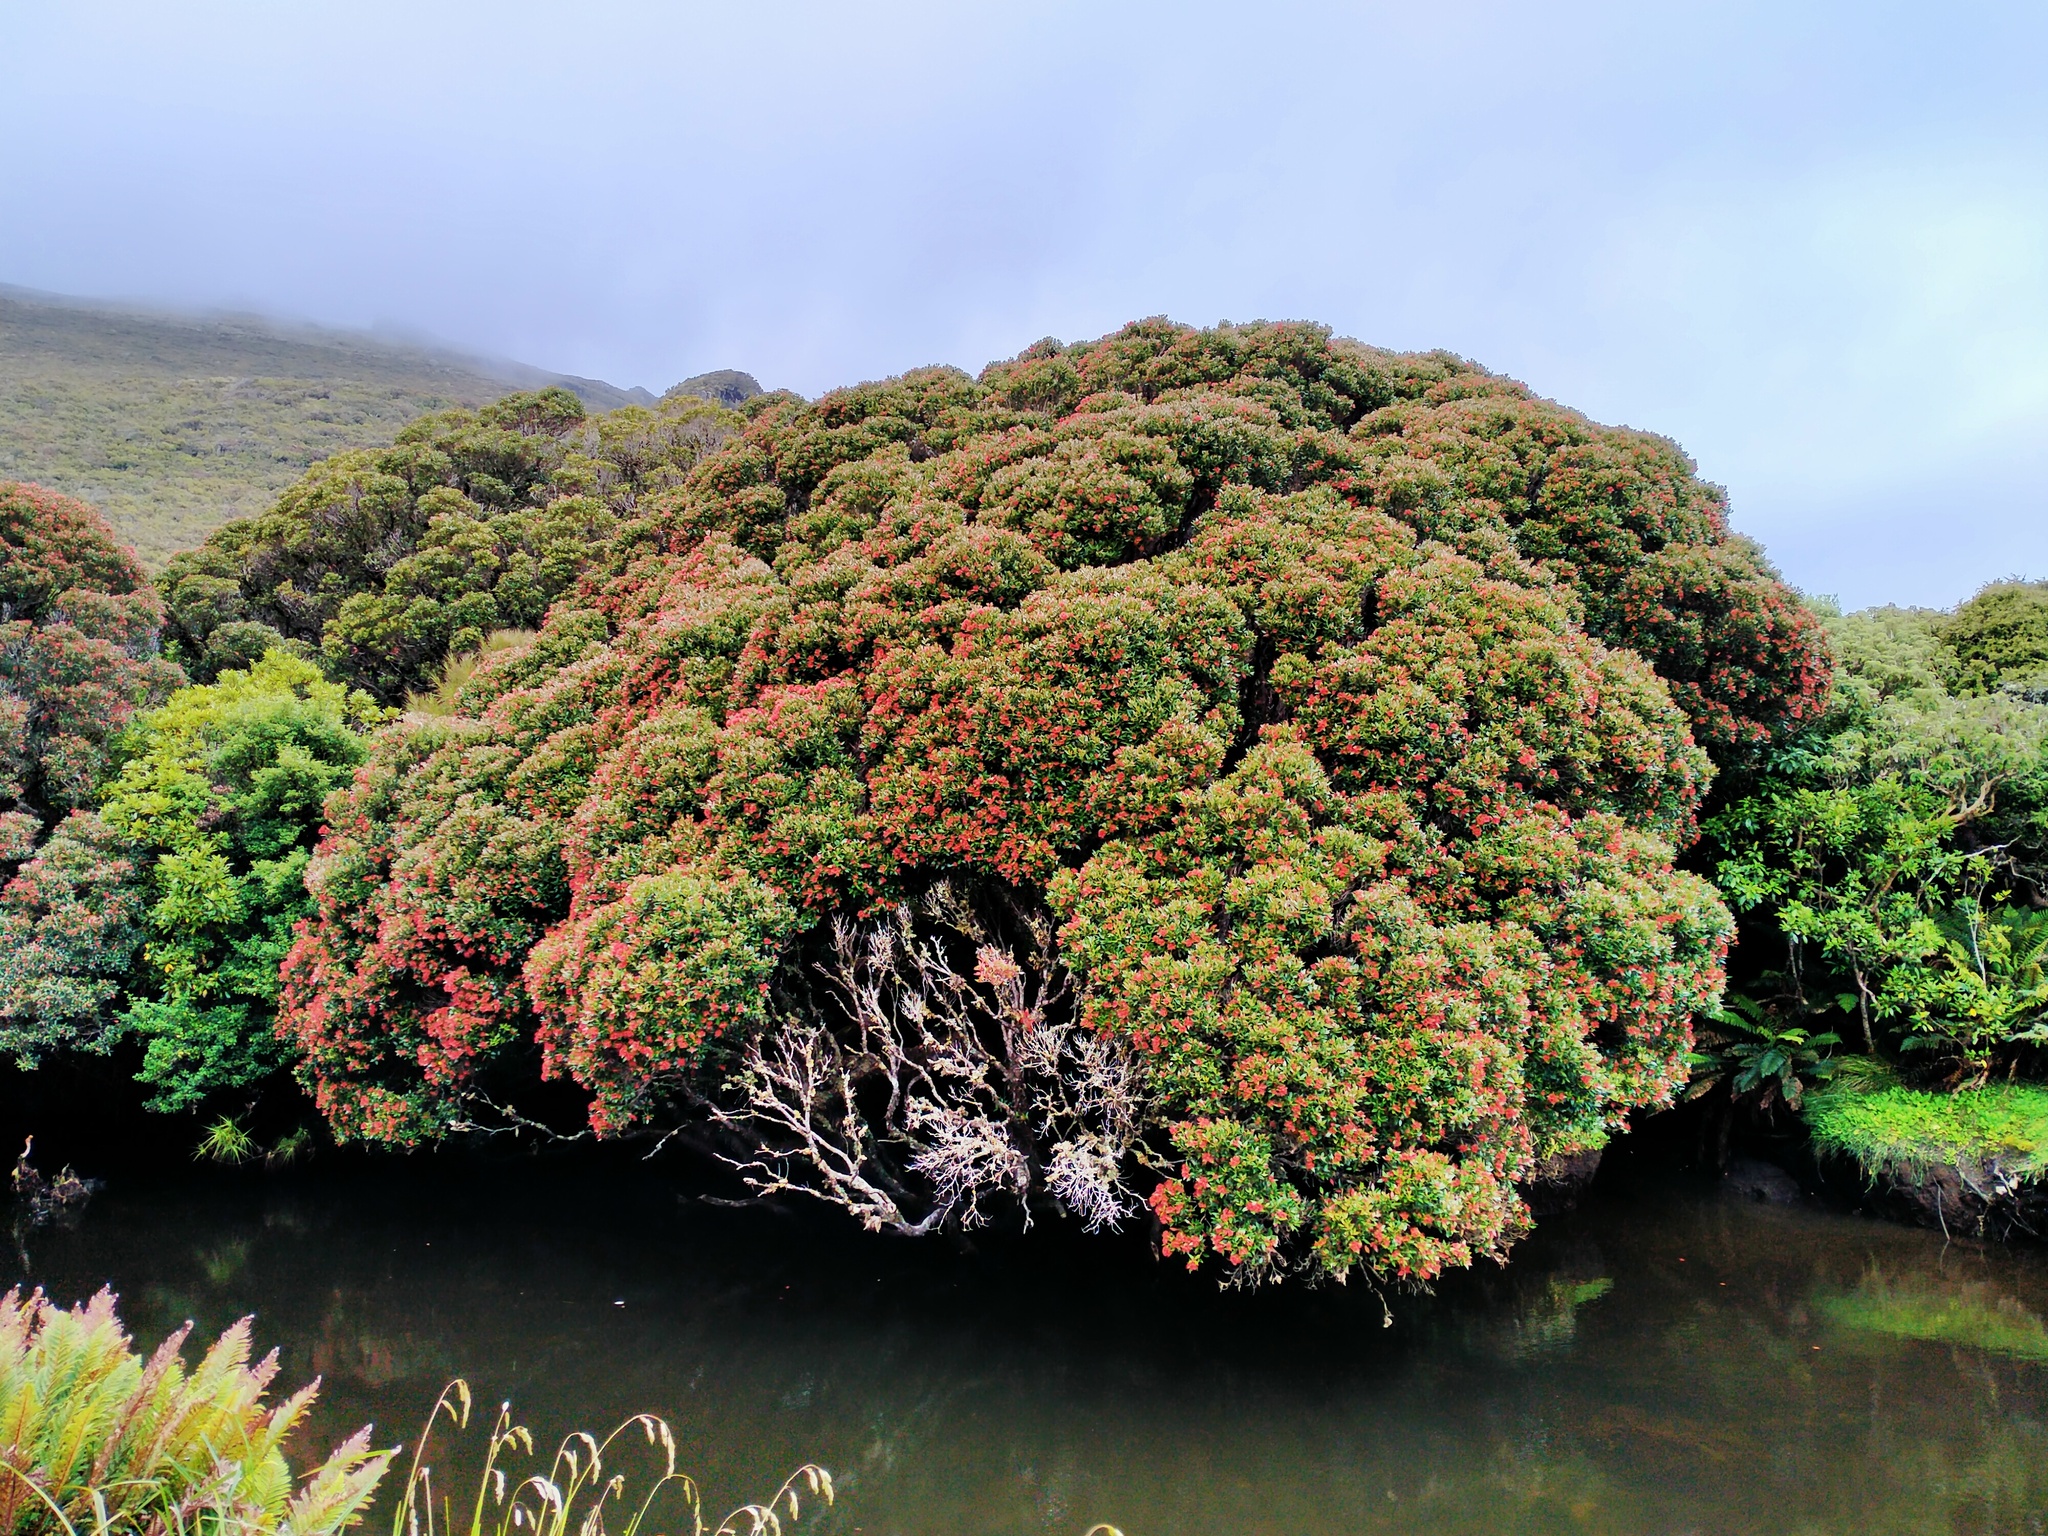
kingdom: Plantae
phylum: Tracheophyta
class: Magnoliopsida
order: Myrtales
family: Myrtaceae
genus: Metrosideros
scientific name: Metrosideros umbellata
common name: Southern rata
